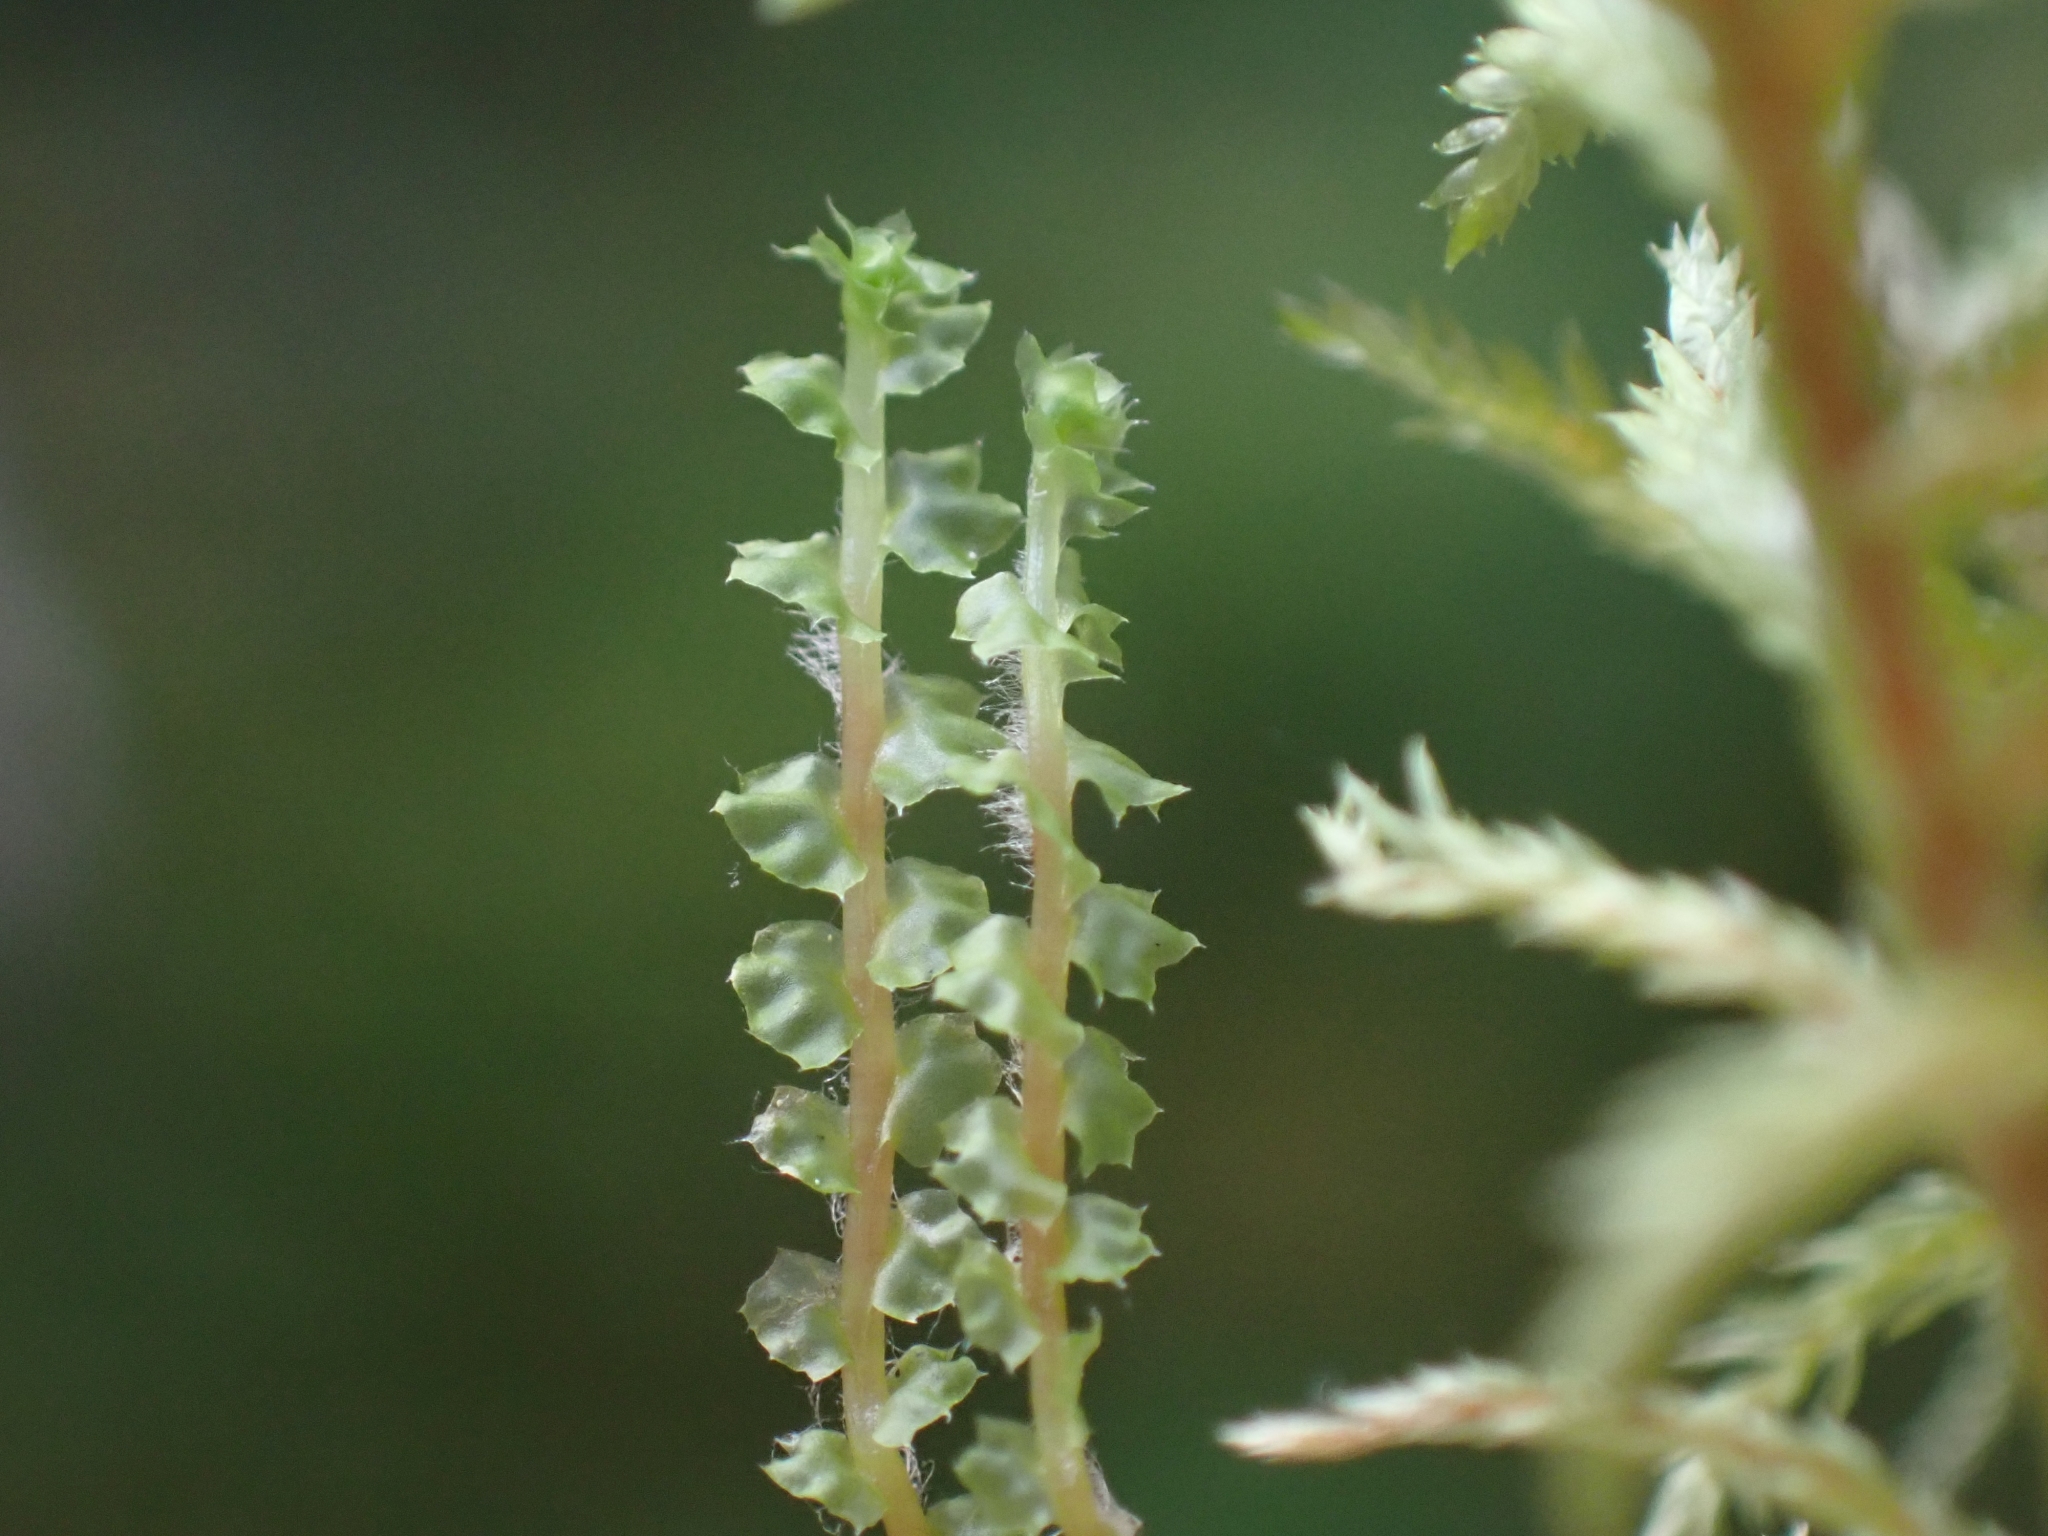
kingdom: Plantae
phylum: Marchantiophyta
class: Jungermanniopsida
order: Jungermanniales
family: Anastrophyllaceae
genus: Barbilophozia
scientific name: Barbilophozia lycopodioides
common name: Greater pawwort
